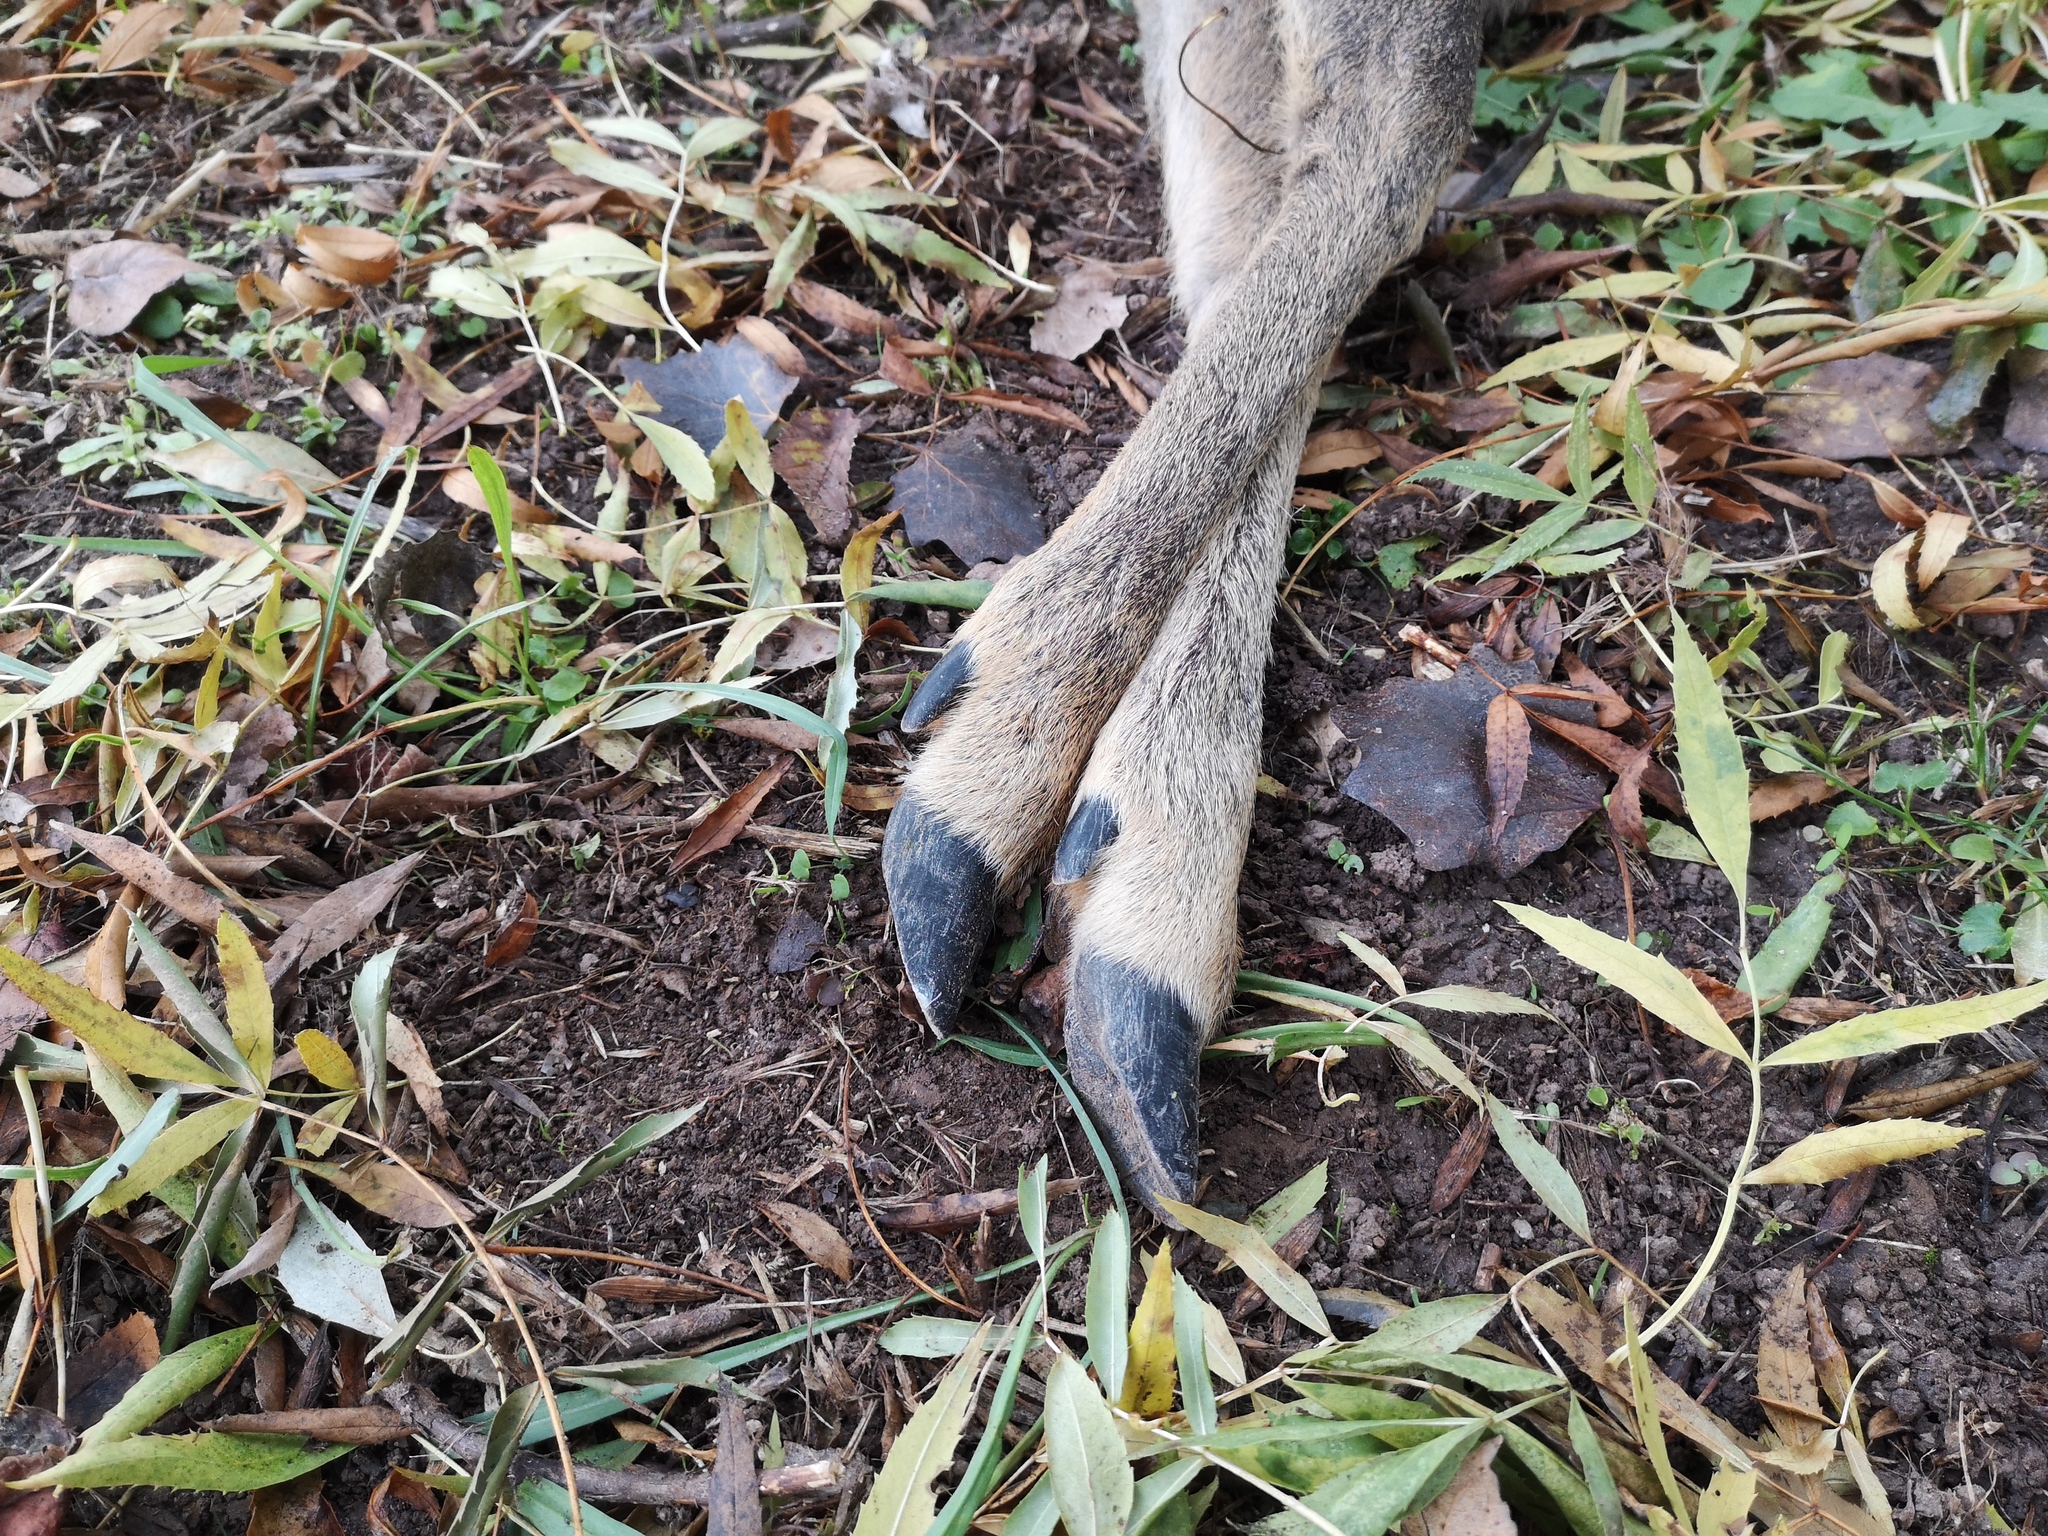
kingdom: Animalia
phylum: Chordata
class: Mammalia
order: Artiodactyla
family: Cervidae
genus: Capreolus
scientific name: Capreolus capreolus
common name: Western roe deer
